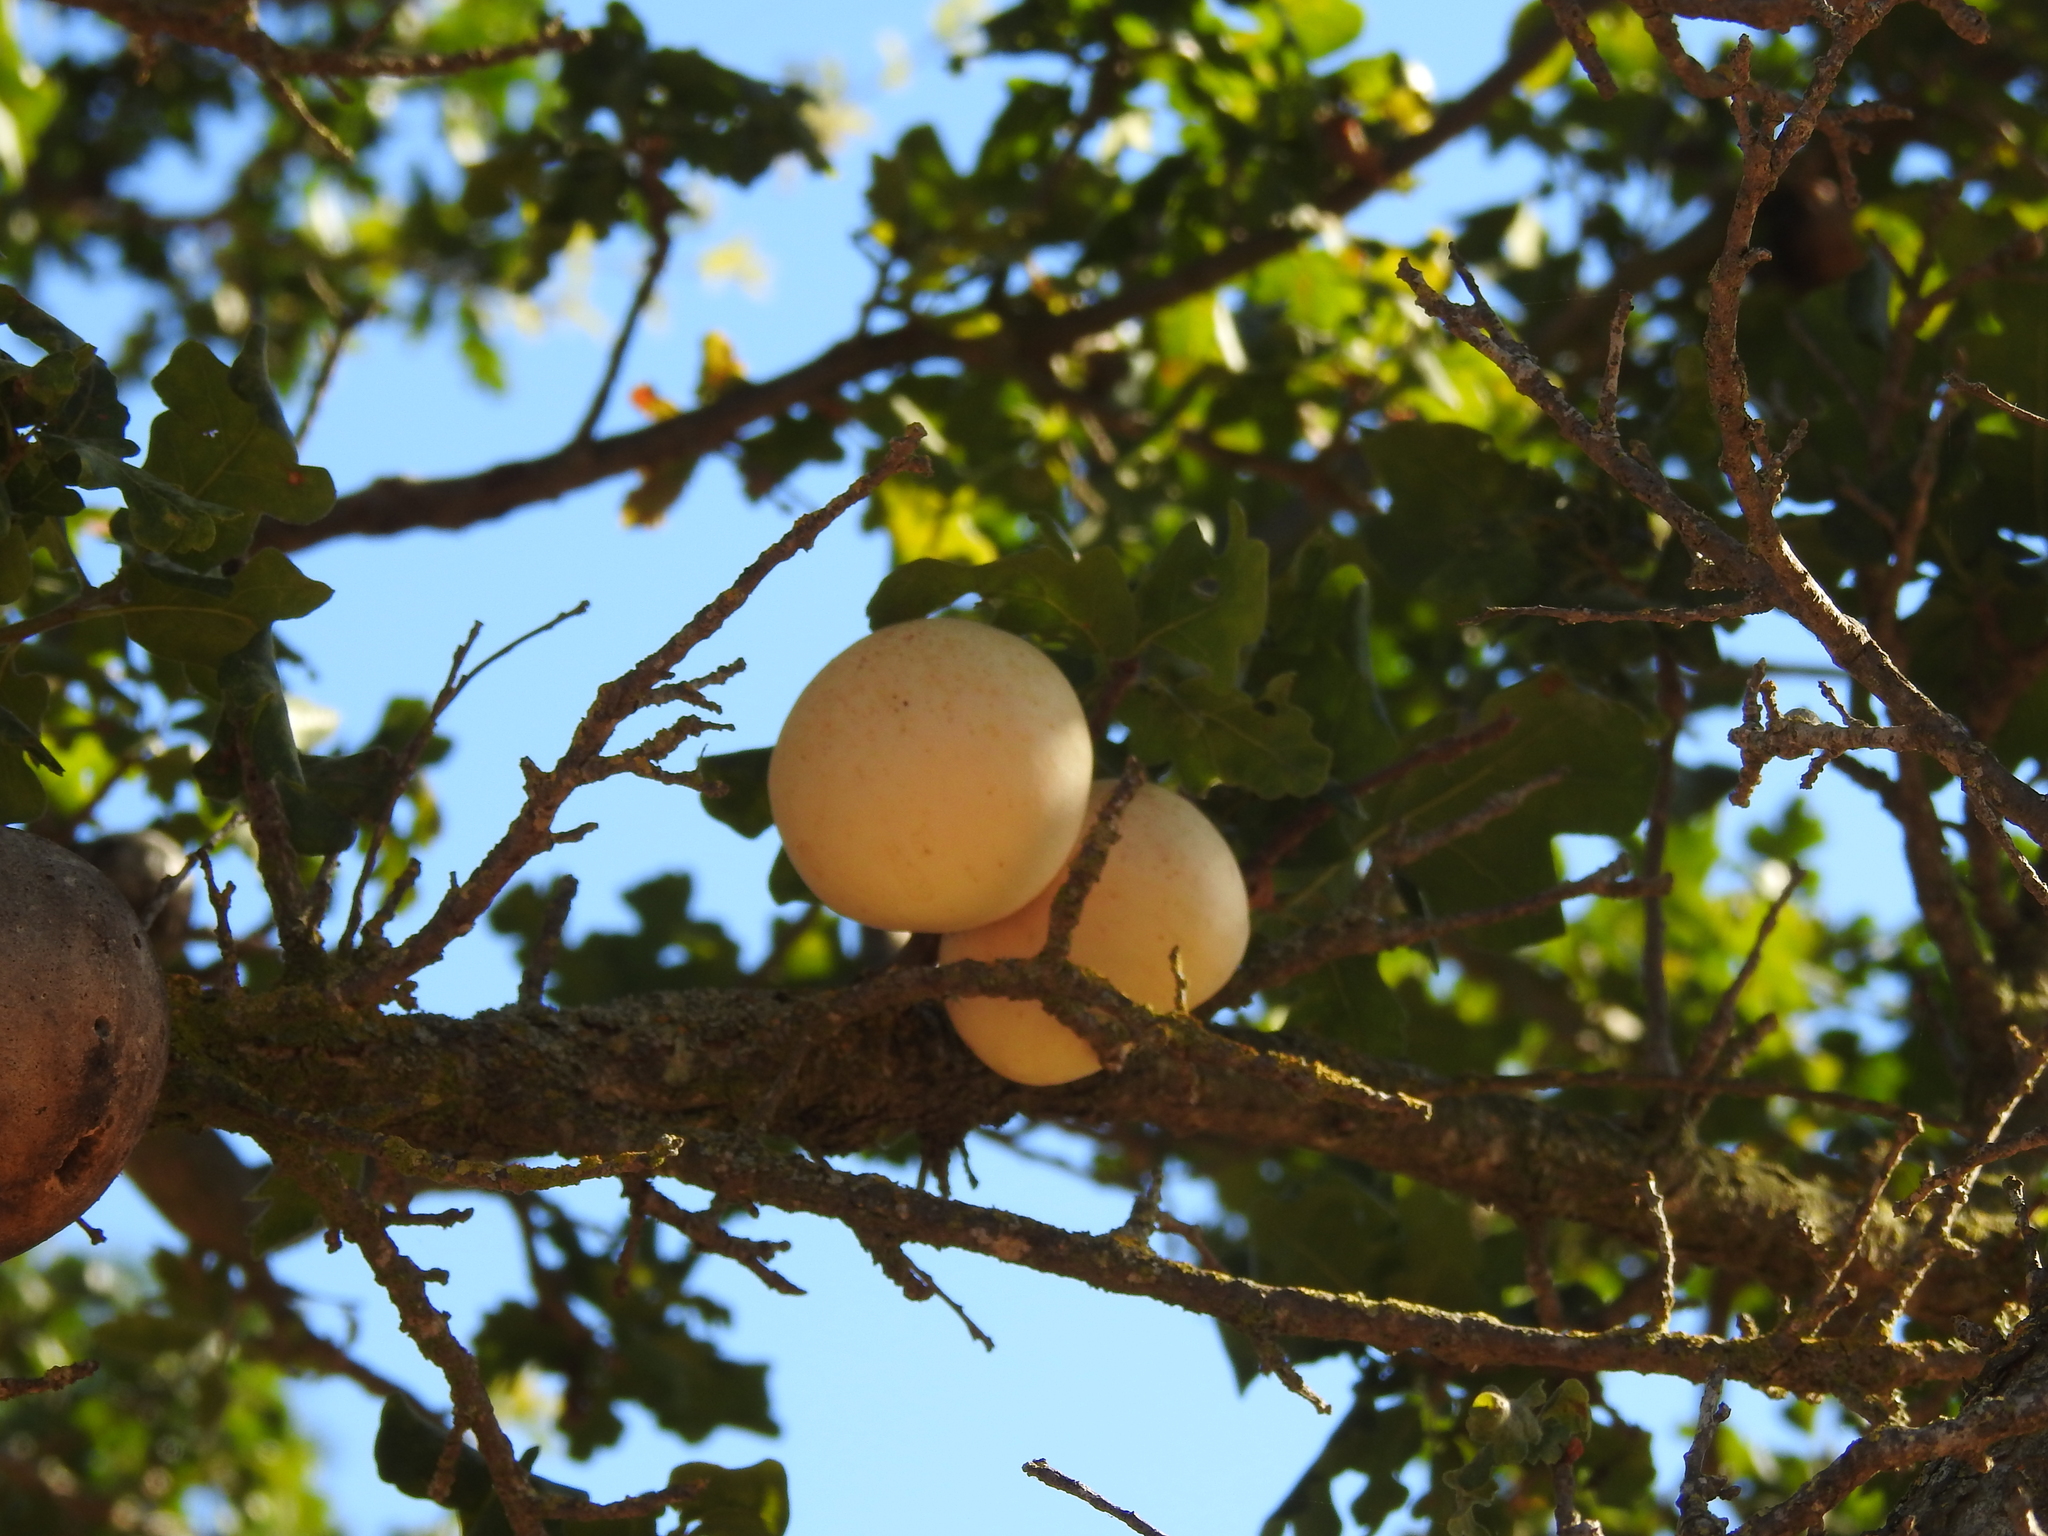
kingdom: Animalia
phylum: Arthropoda
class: Insecta
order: Hymenoptera
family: Cynipidae
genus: Andricus
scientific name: Andricus quercuscalifornicus
